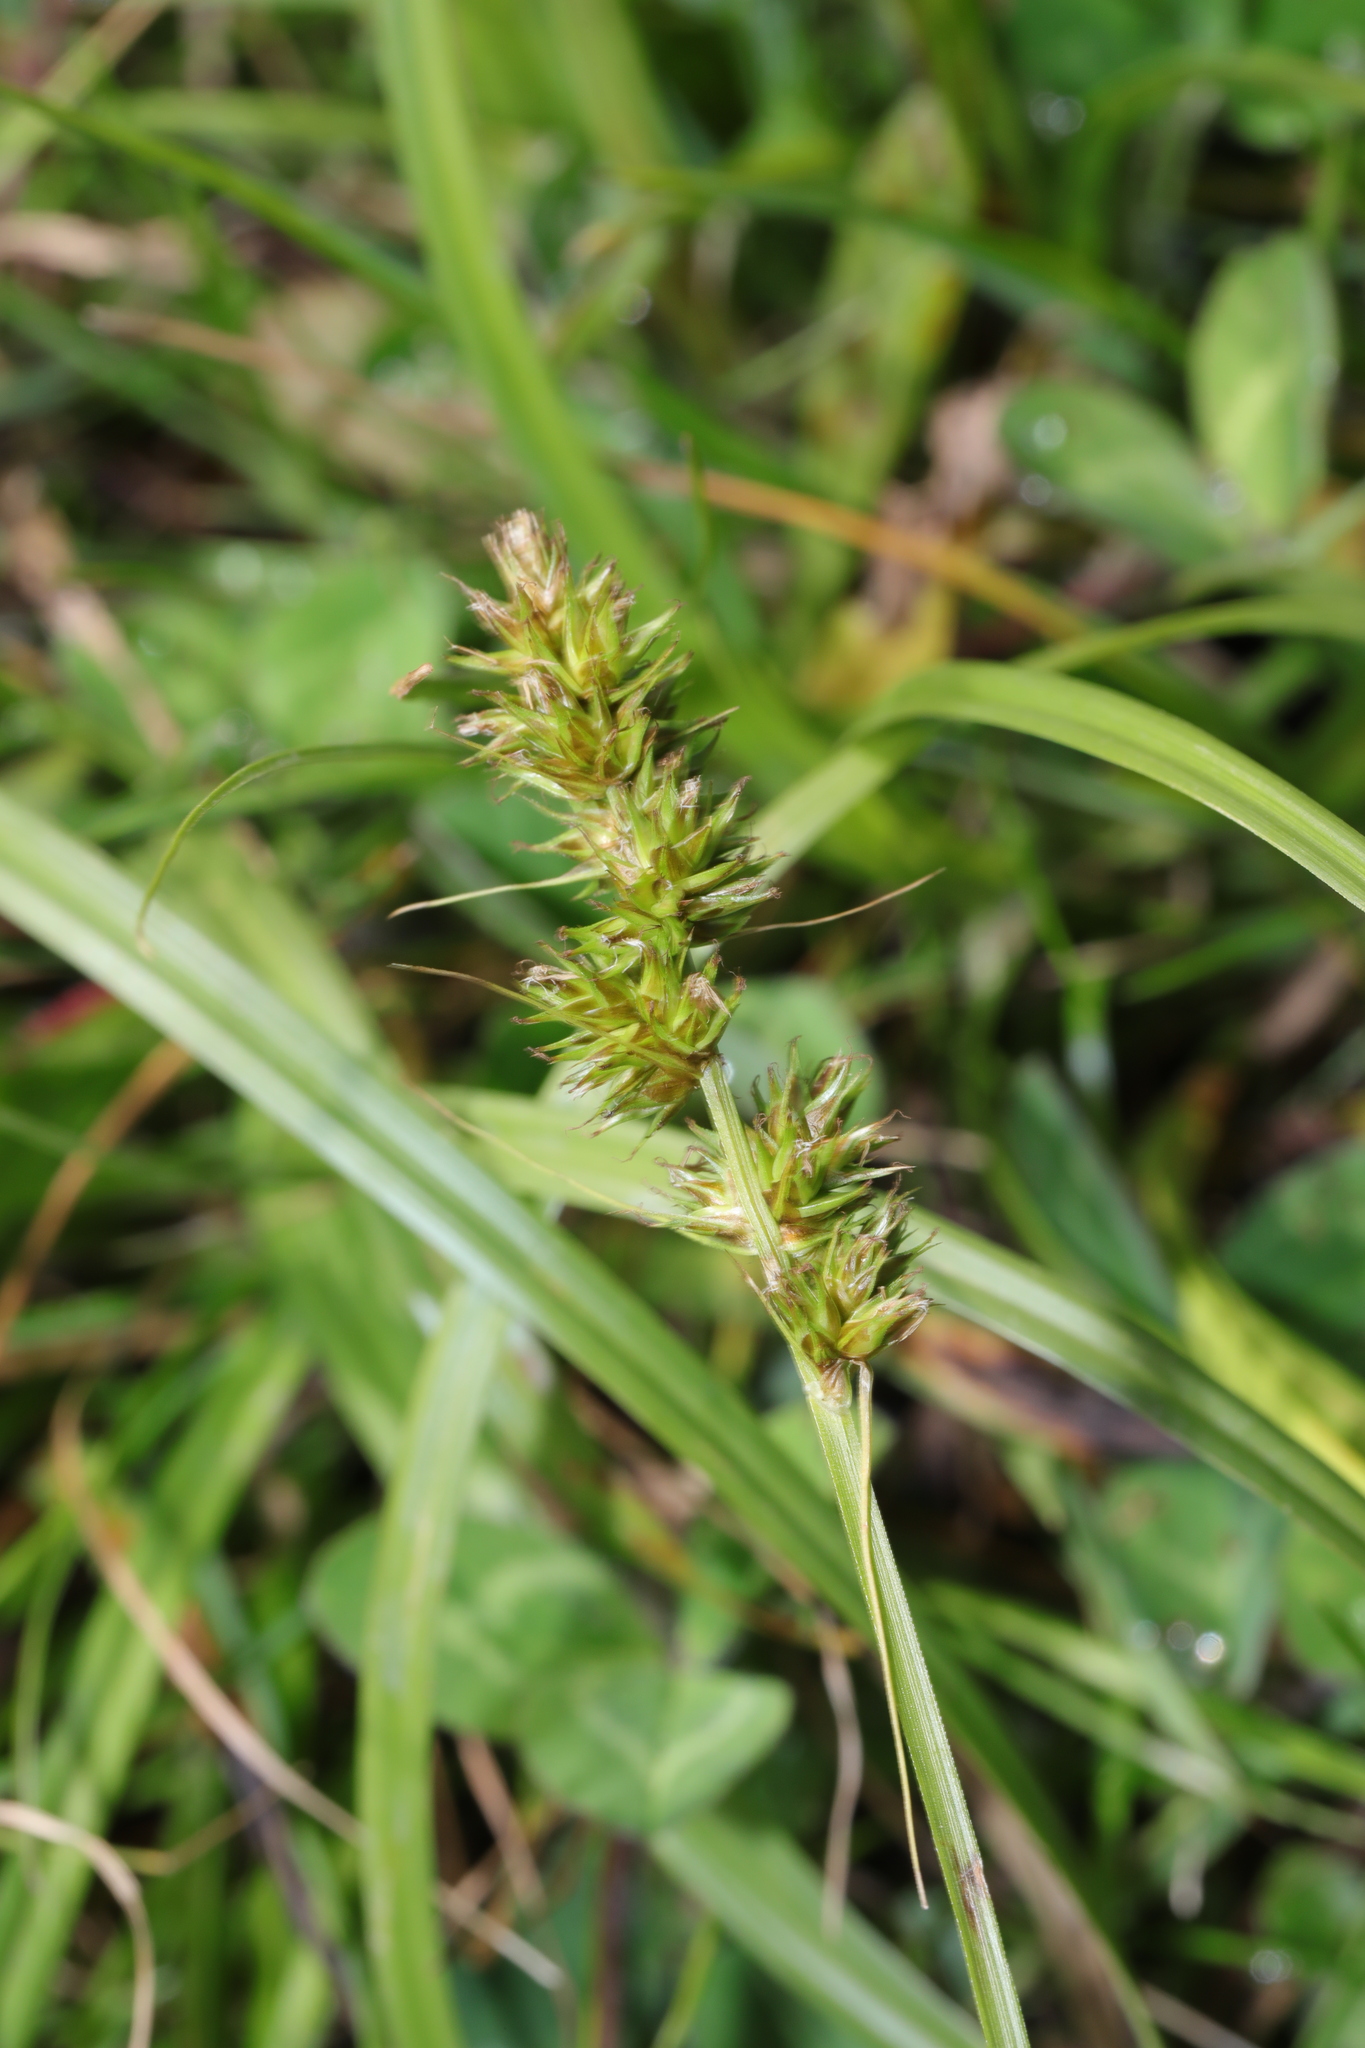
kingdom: Plantae
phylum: Tracheophyta
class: Liliopsida
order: Poales
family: Cyperaceae
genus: Carex
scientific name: Carex otrubae
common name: False fox-sedge
